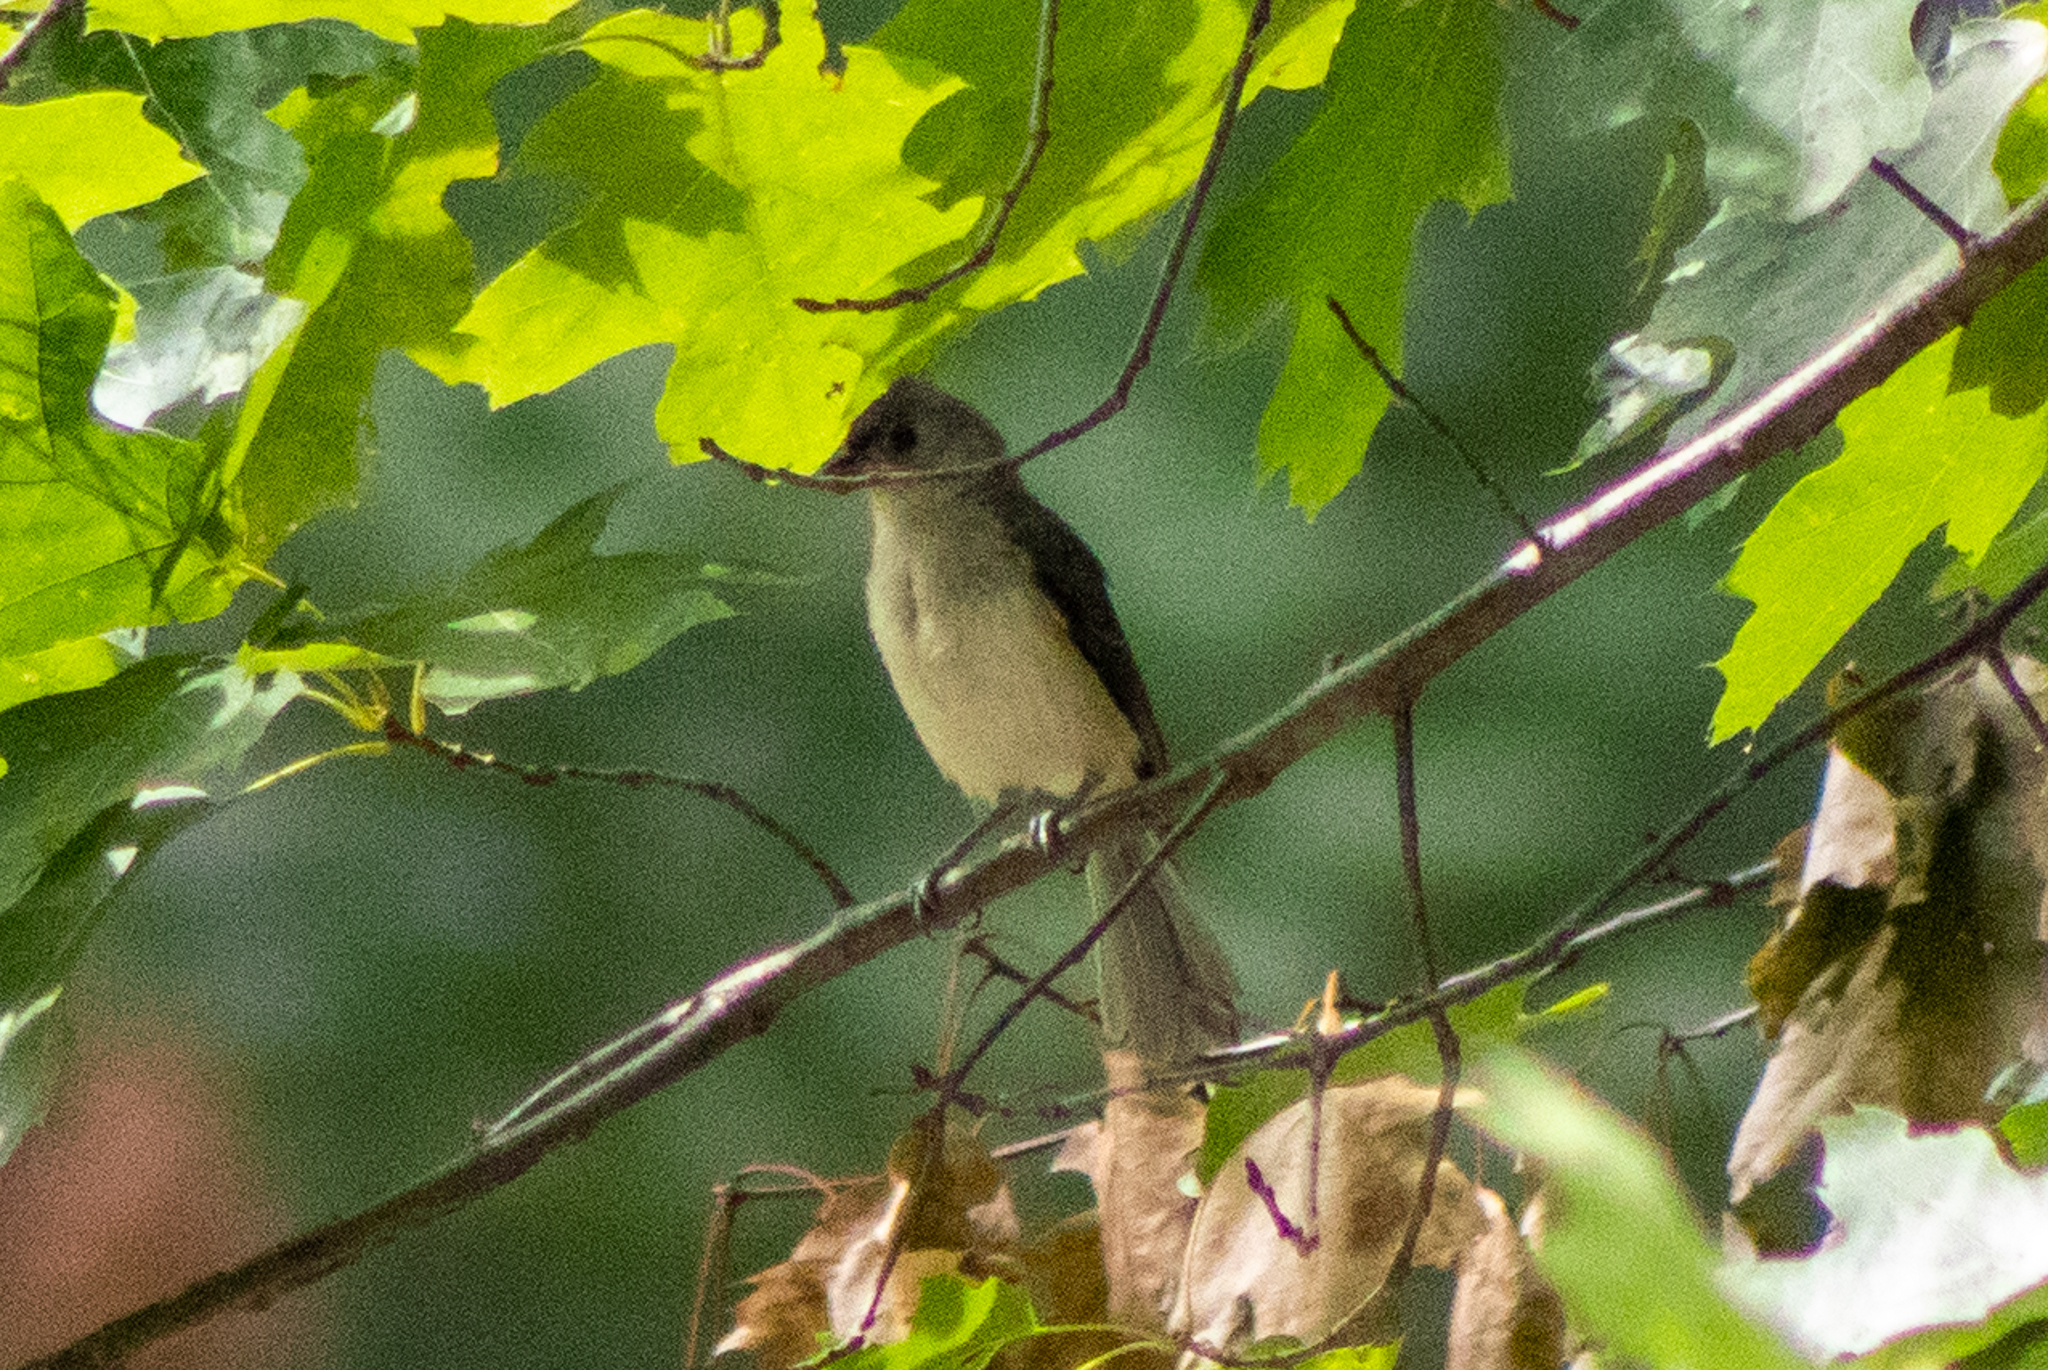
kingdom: Animalia
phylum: Chordata
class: Aves
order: Passeriformes
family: Paridae
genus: Baeolophus
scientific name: Baeolophus bicolor
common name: Tufted titmouse
